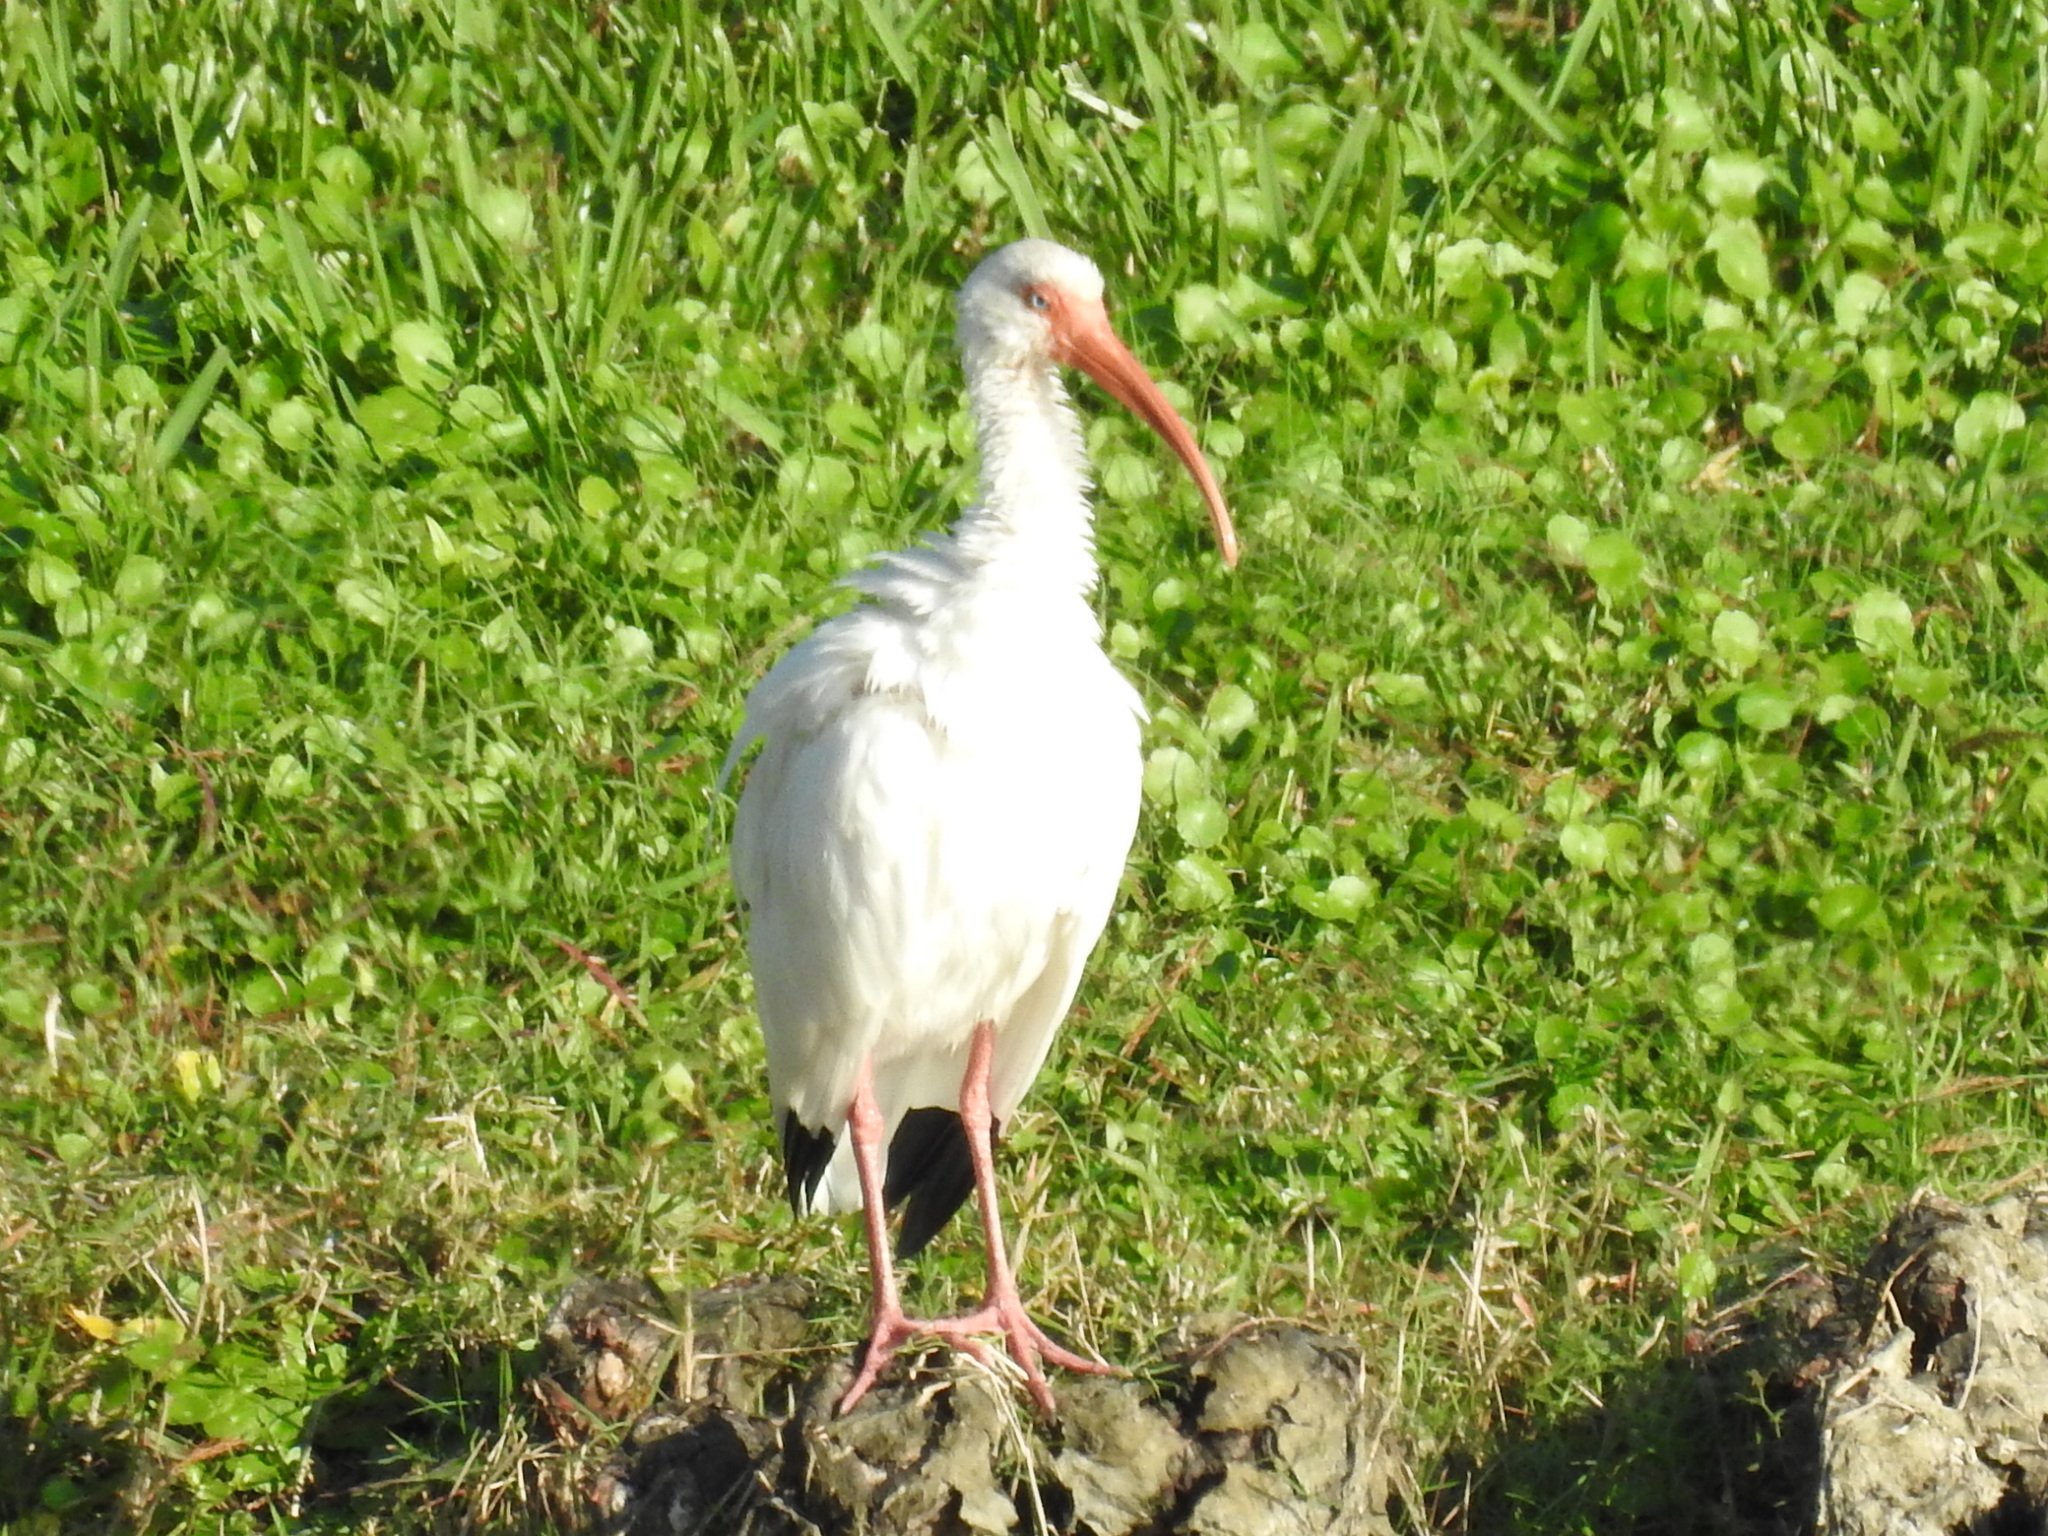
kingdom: Animalia
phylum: Chordata
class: Aves
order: Pelecaniformes
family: Threskiornithidae
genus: Eudocimus
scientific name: Eudocimus albus
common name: White ibis
